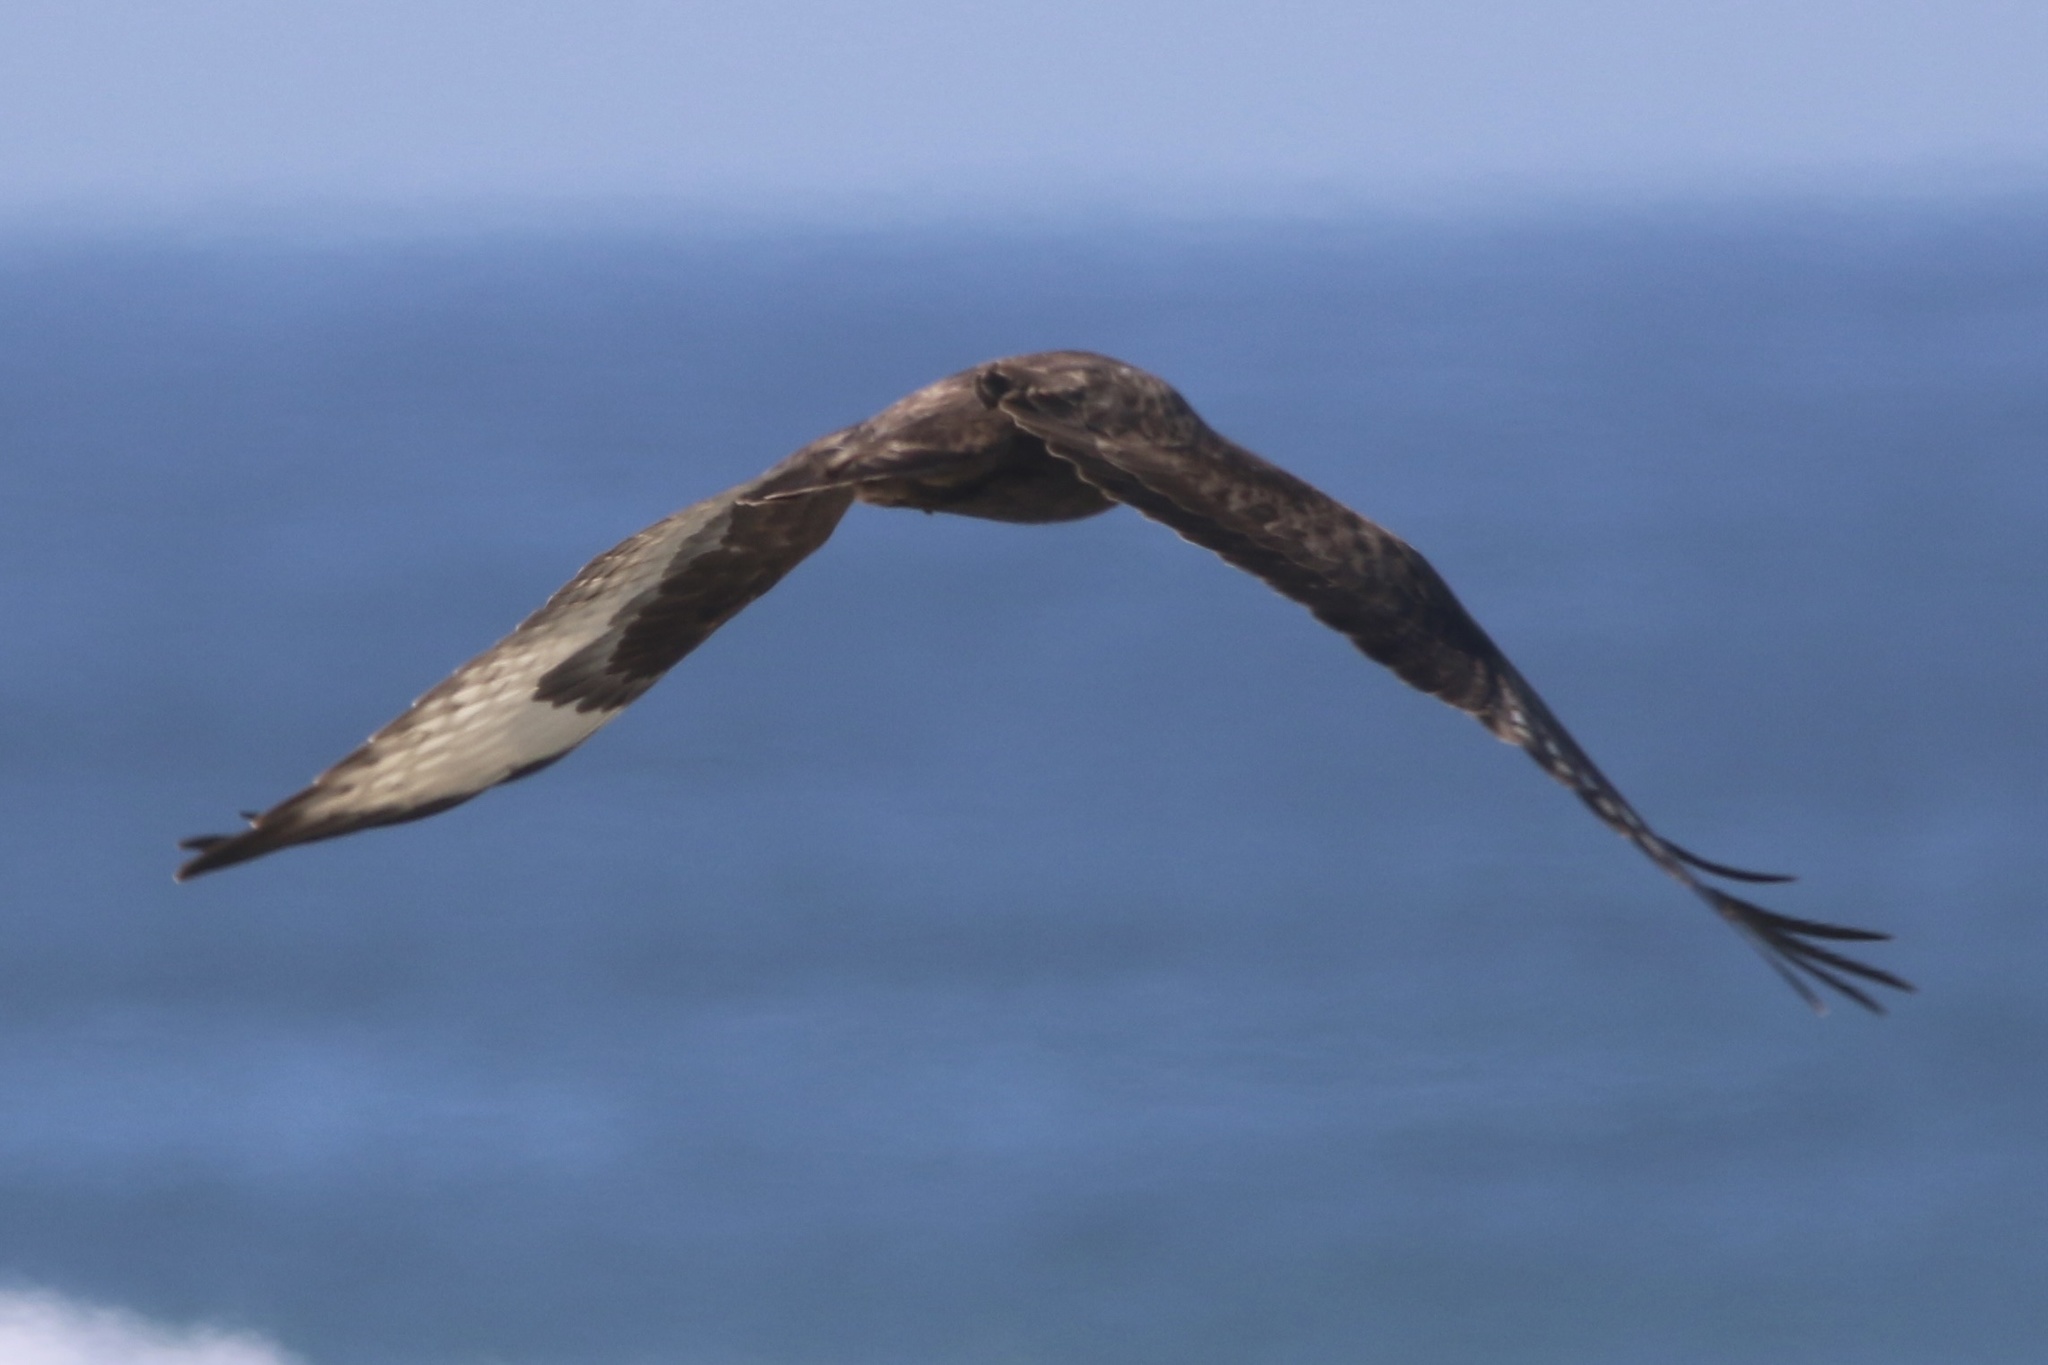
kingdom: Animalia
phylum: Chordata
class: Aves
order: Accipitriformes
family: Accipitridae
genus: Buteo
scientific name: Buteo lagopus
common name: Rough-legged buzzard
